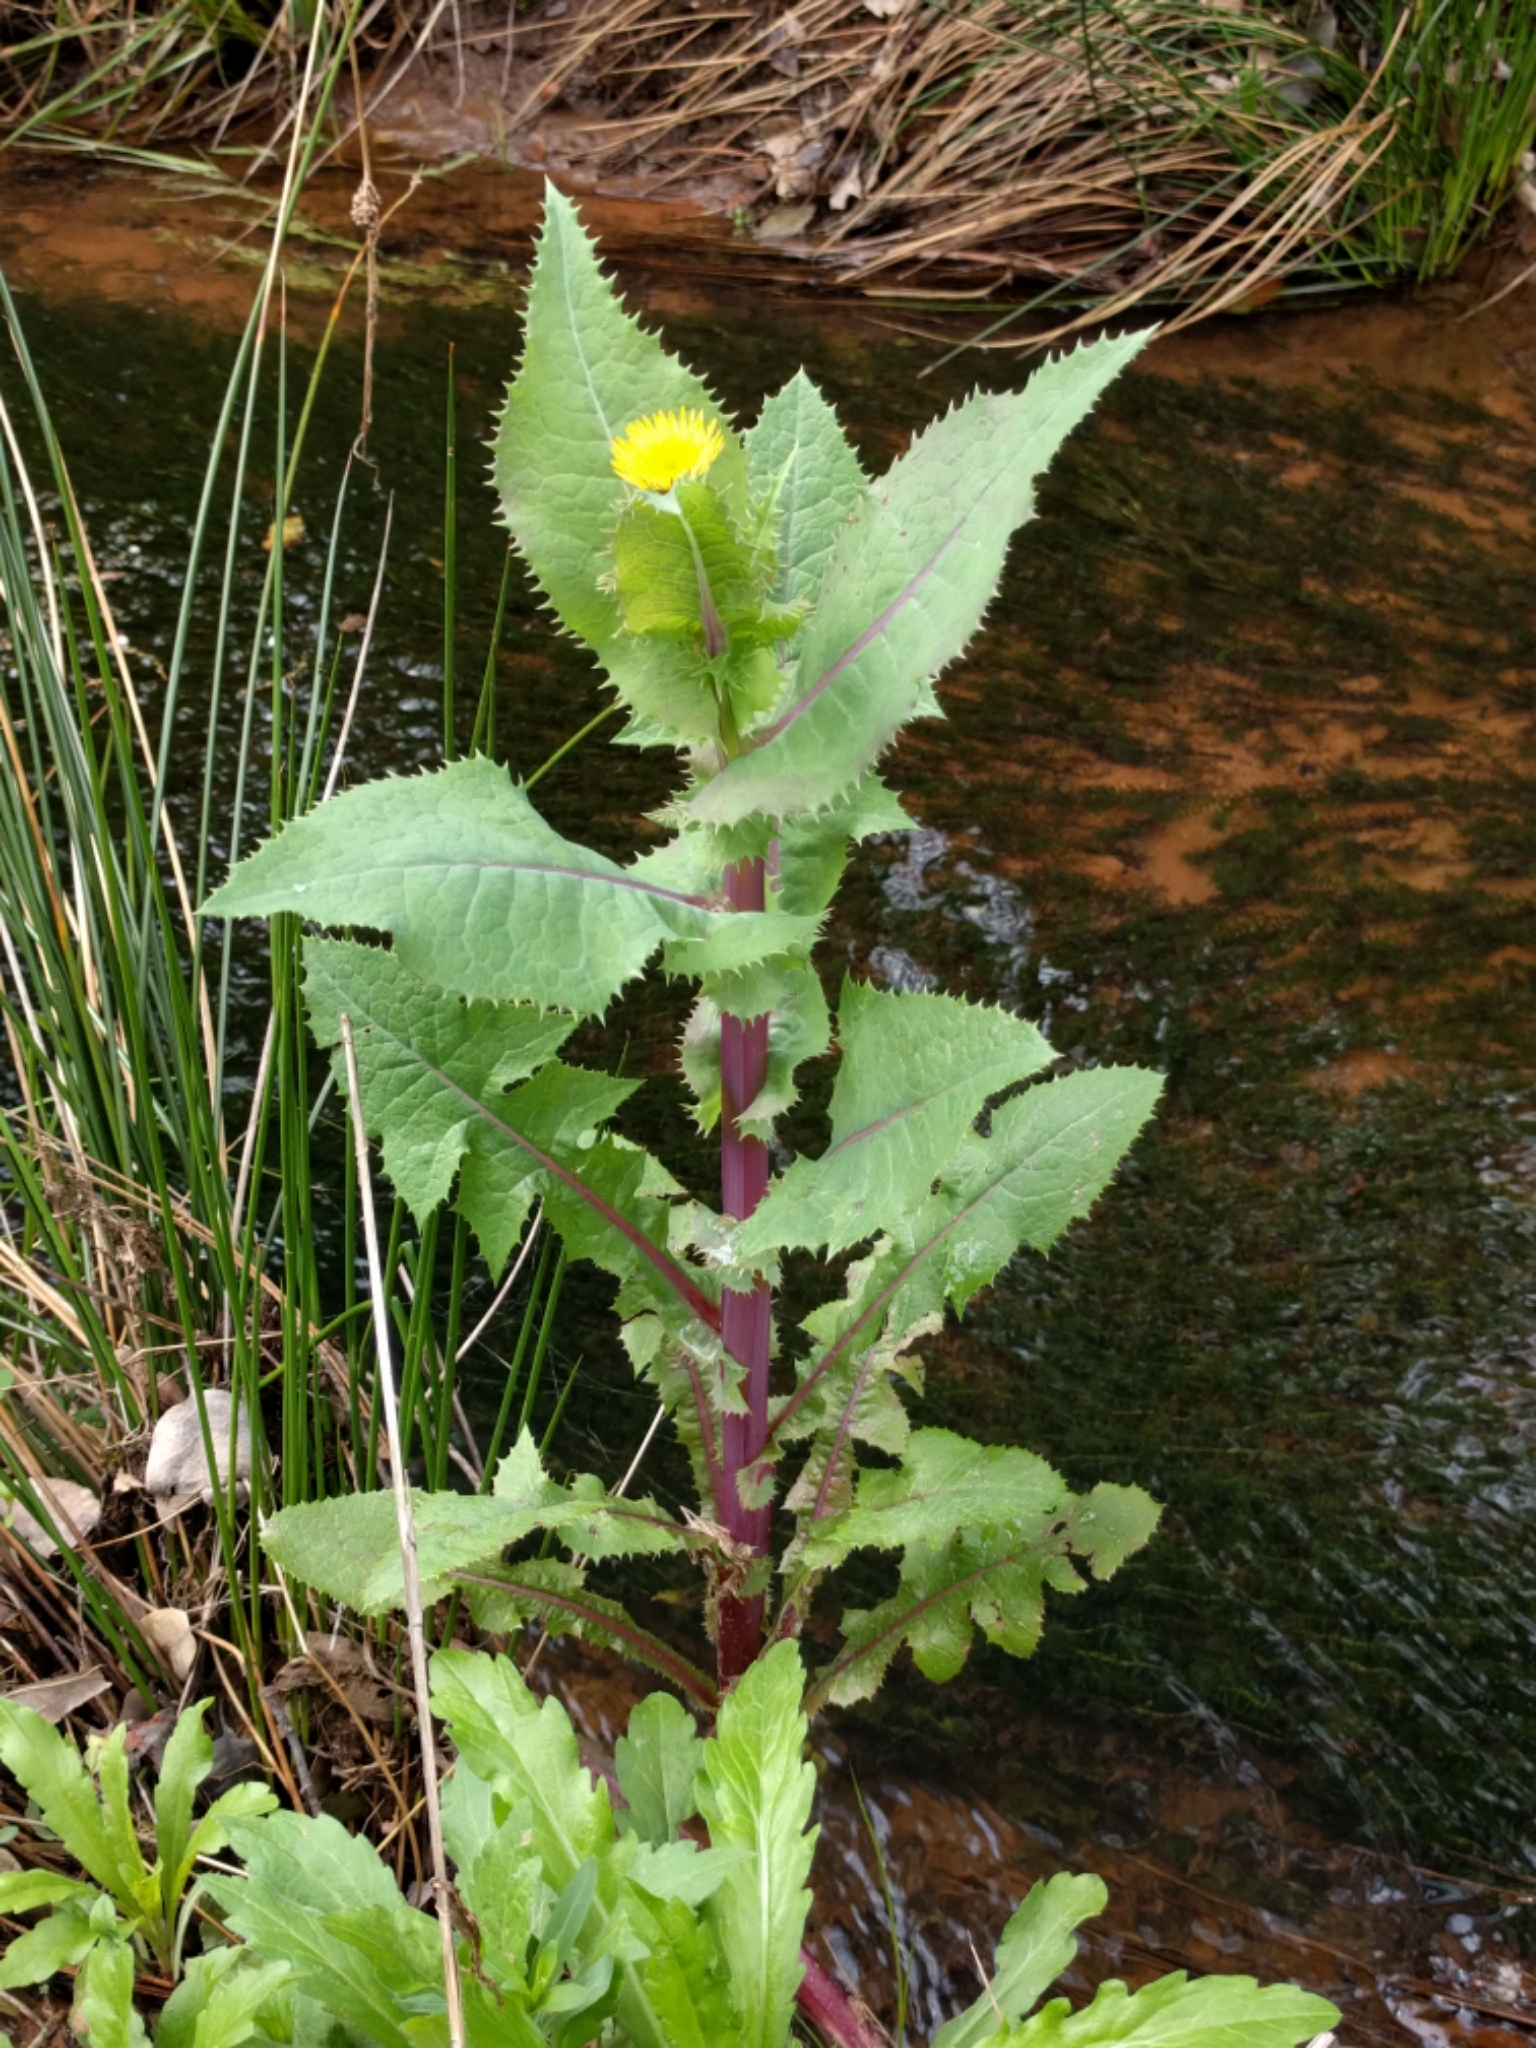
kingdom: Plantae
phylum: Tracheophyta
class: Magnoliopsida
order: Asterales
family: Asteraceae
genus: Sonchus
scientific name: Sonchus asper
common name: Prickly sow-thistle
